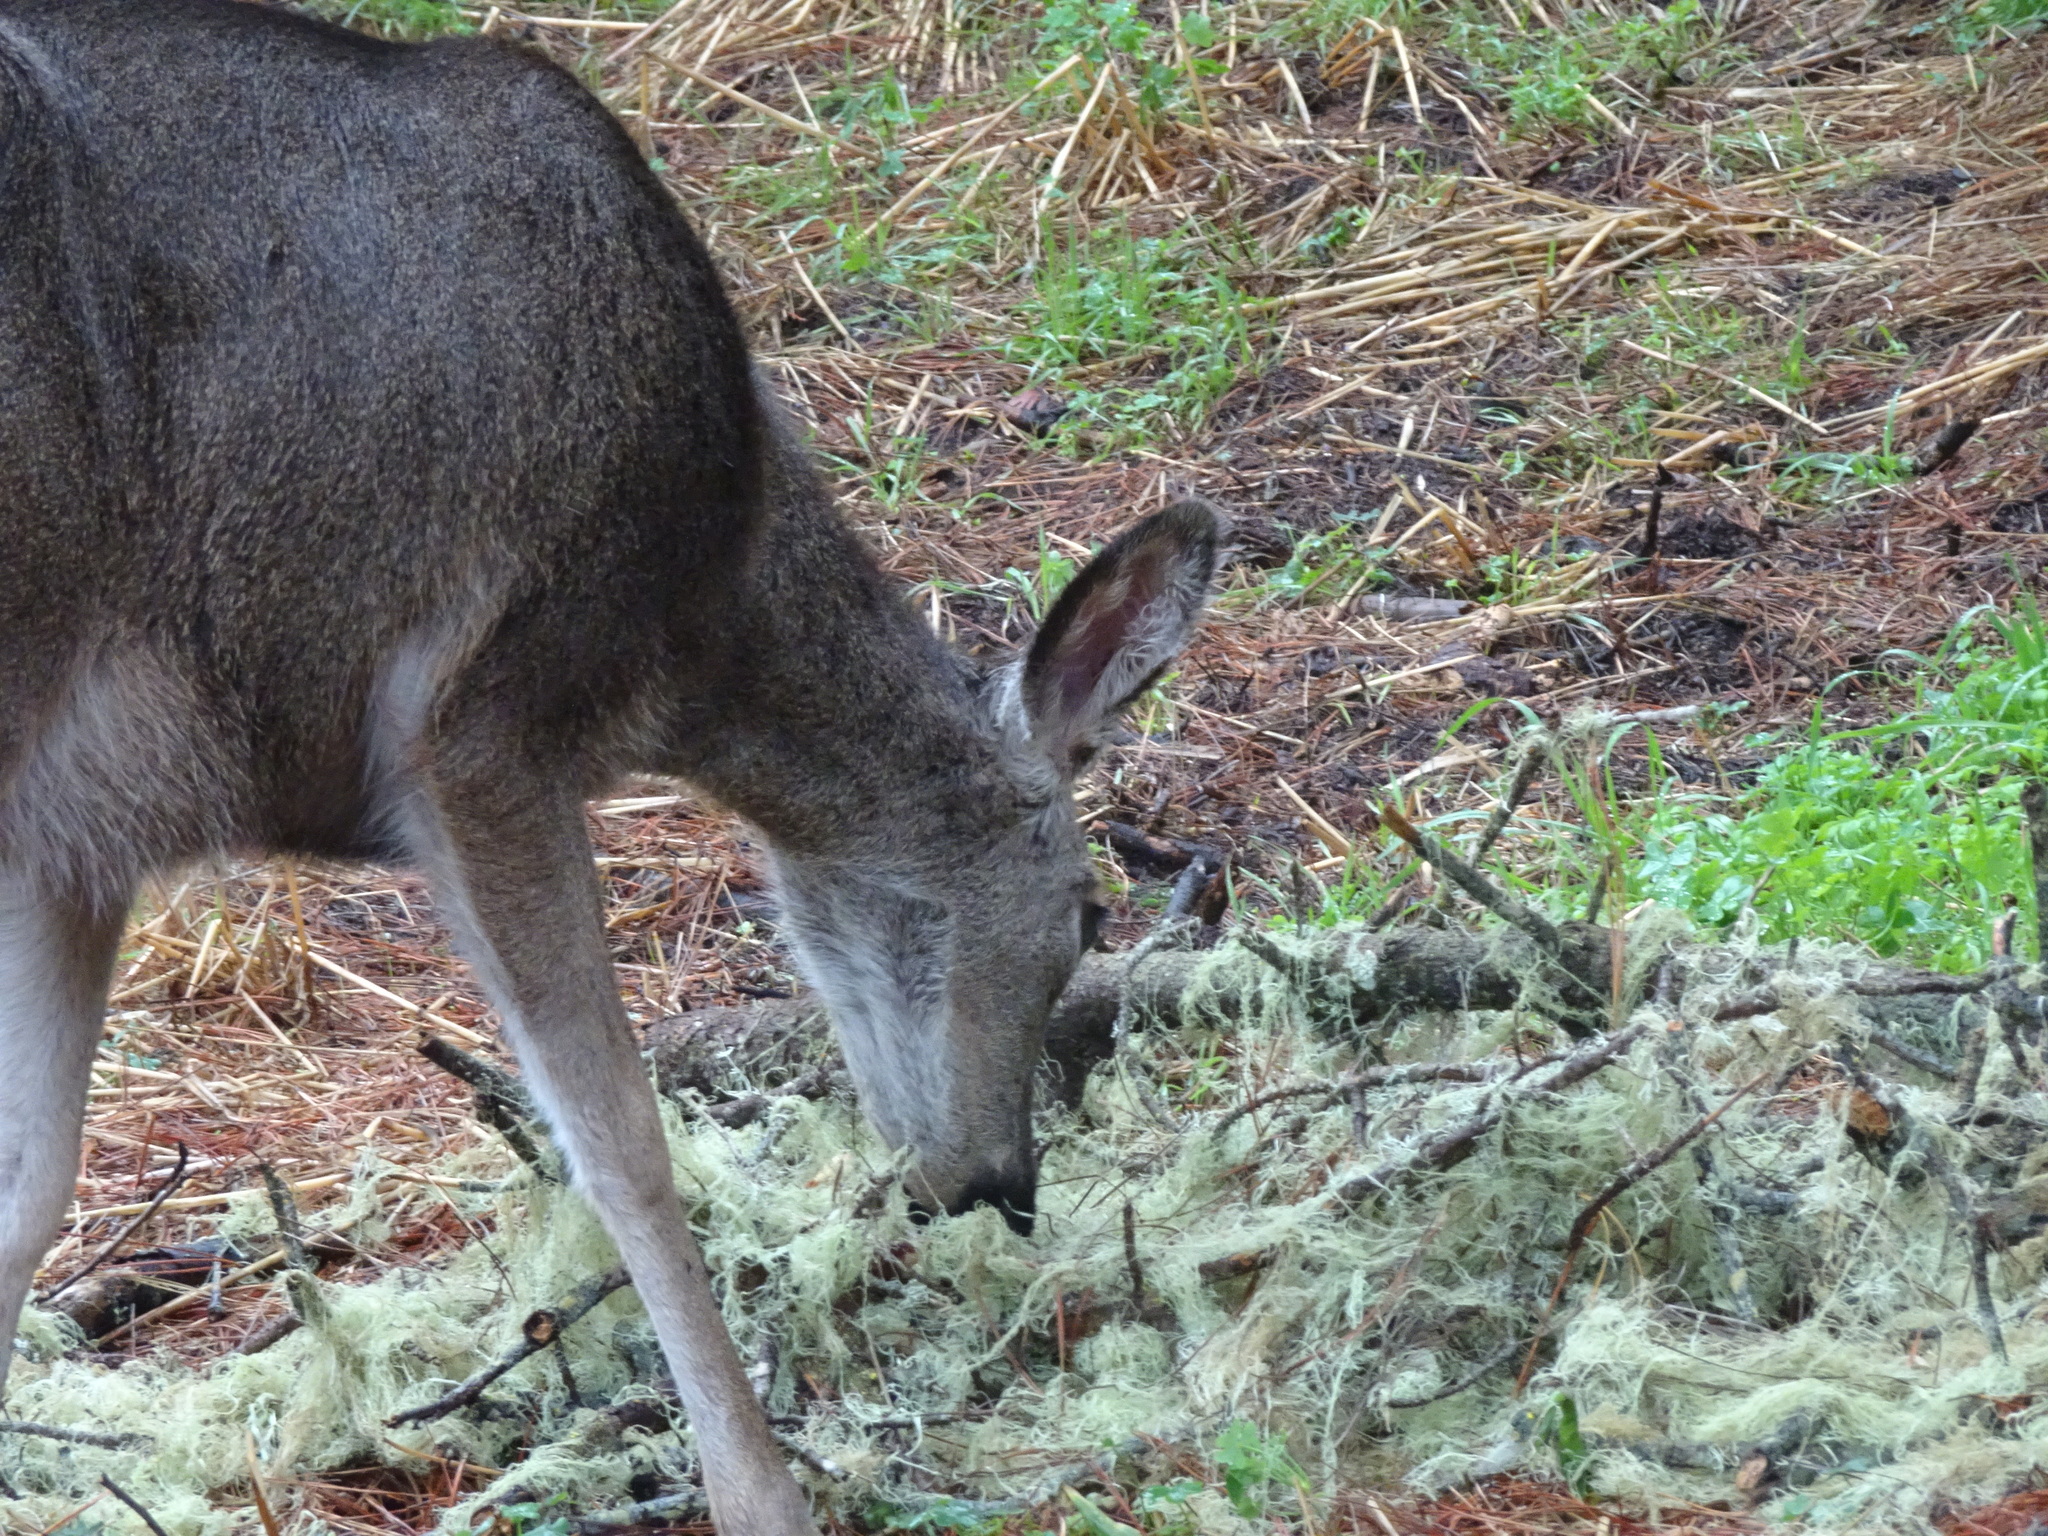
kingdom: Animalia
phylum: Chordata
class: Mammalia
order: Artiodactyla
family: Cervidae
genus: Odocoileus
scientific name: Odocoileus hemionus
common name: Mule deer
